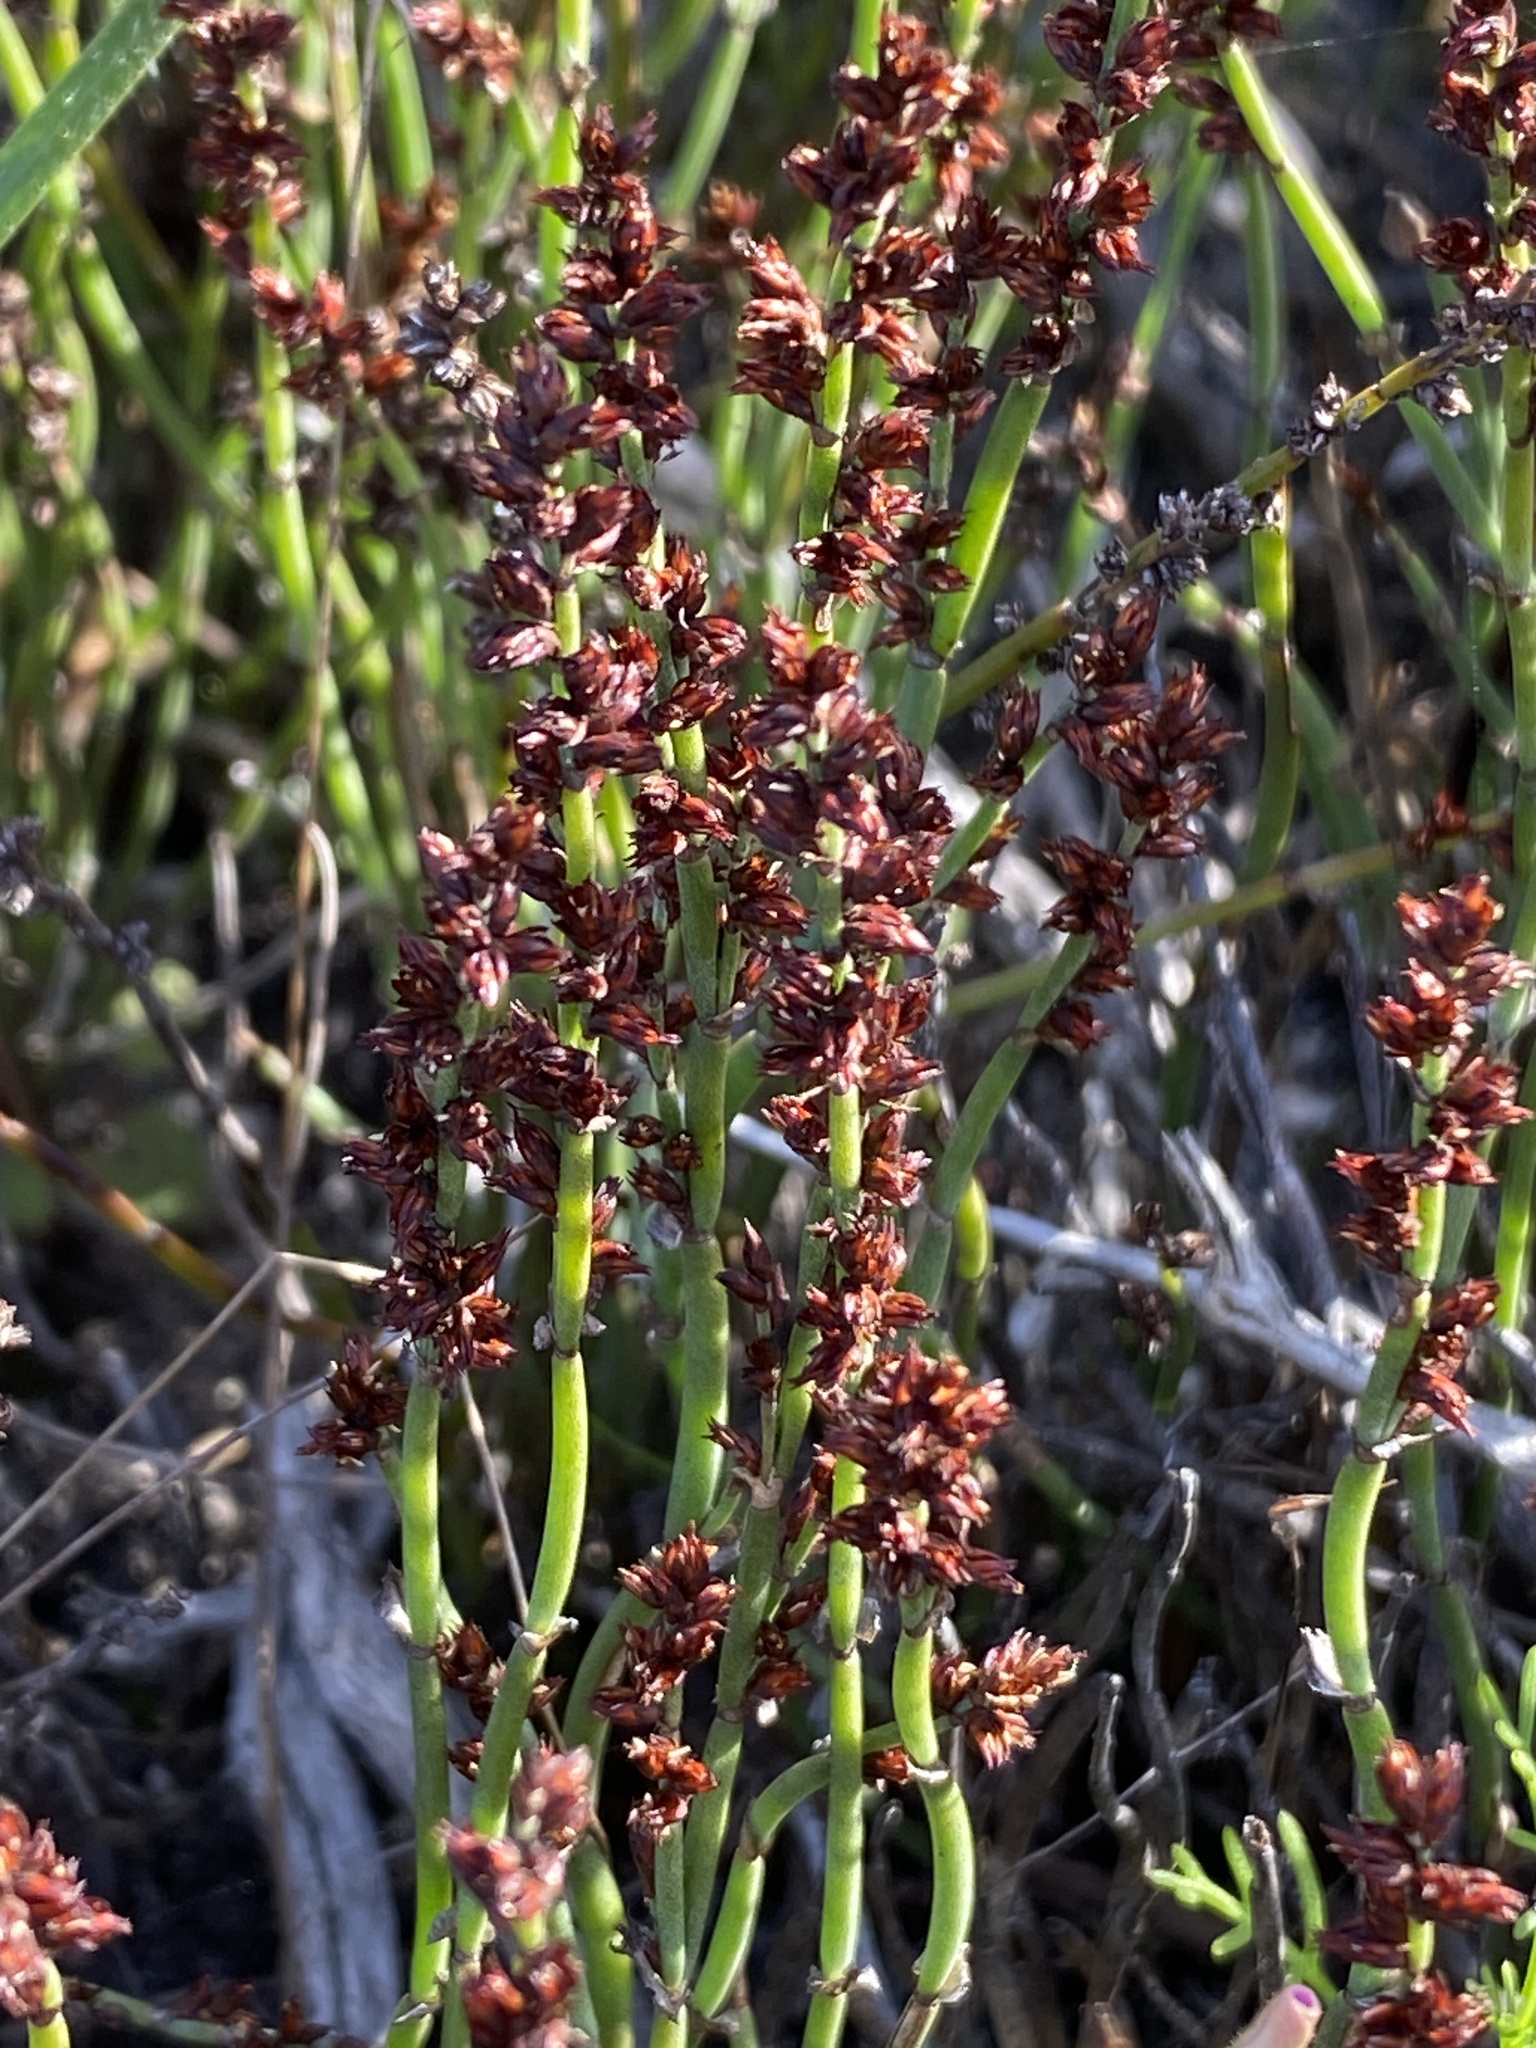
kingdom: Plantae
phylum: Tracheophyta
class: Liliopsida
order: Poales
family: Restionaceae
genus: Elegia
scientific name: Elegia microcarpa
